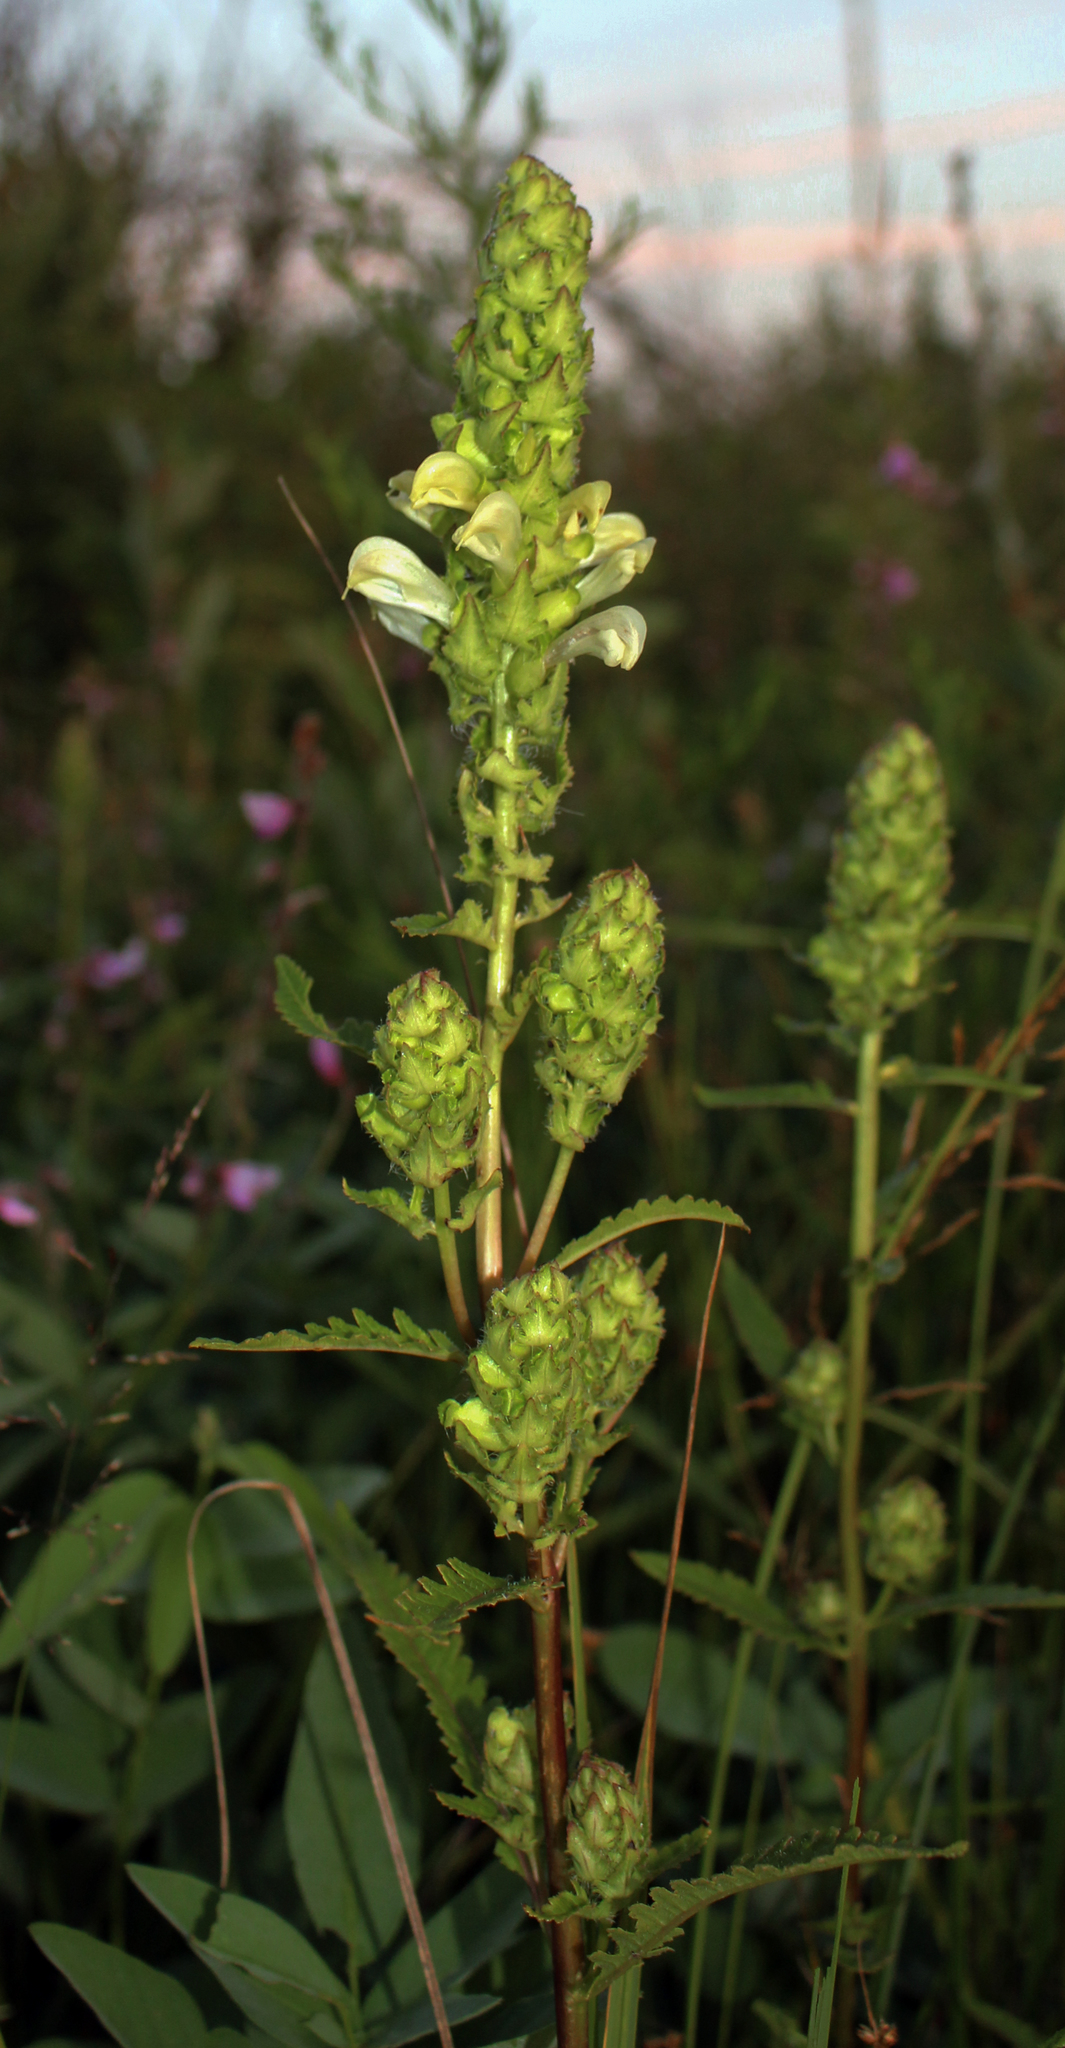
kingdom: Plantae
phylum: Tracheophyta
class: Magnoliopsida
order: Lamiales
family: Orobanchaceae
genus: Pedicularis
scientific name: Pedicularis lanceolata
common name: Swamp lousewort
